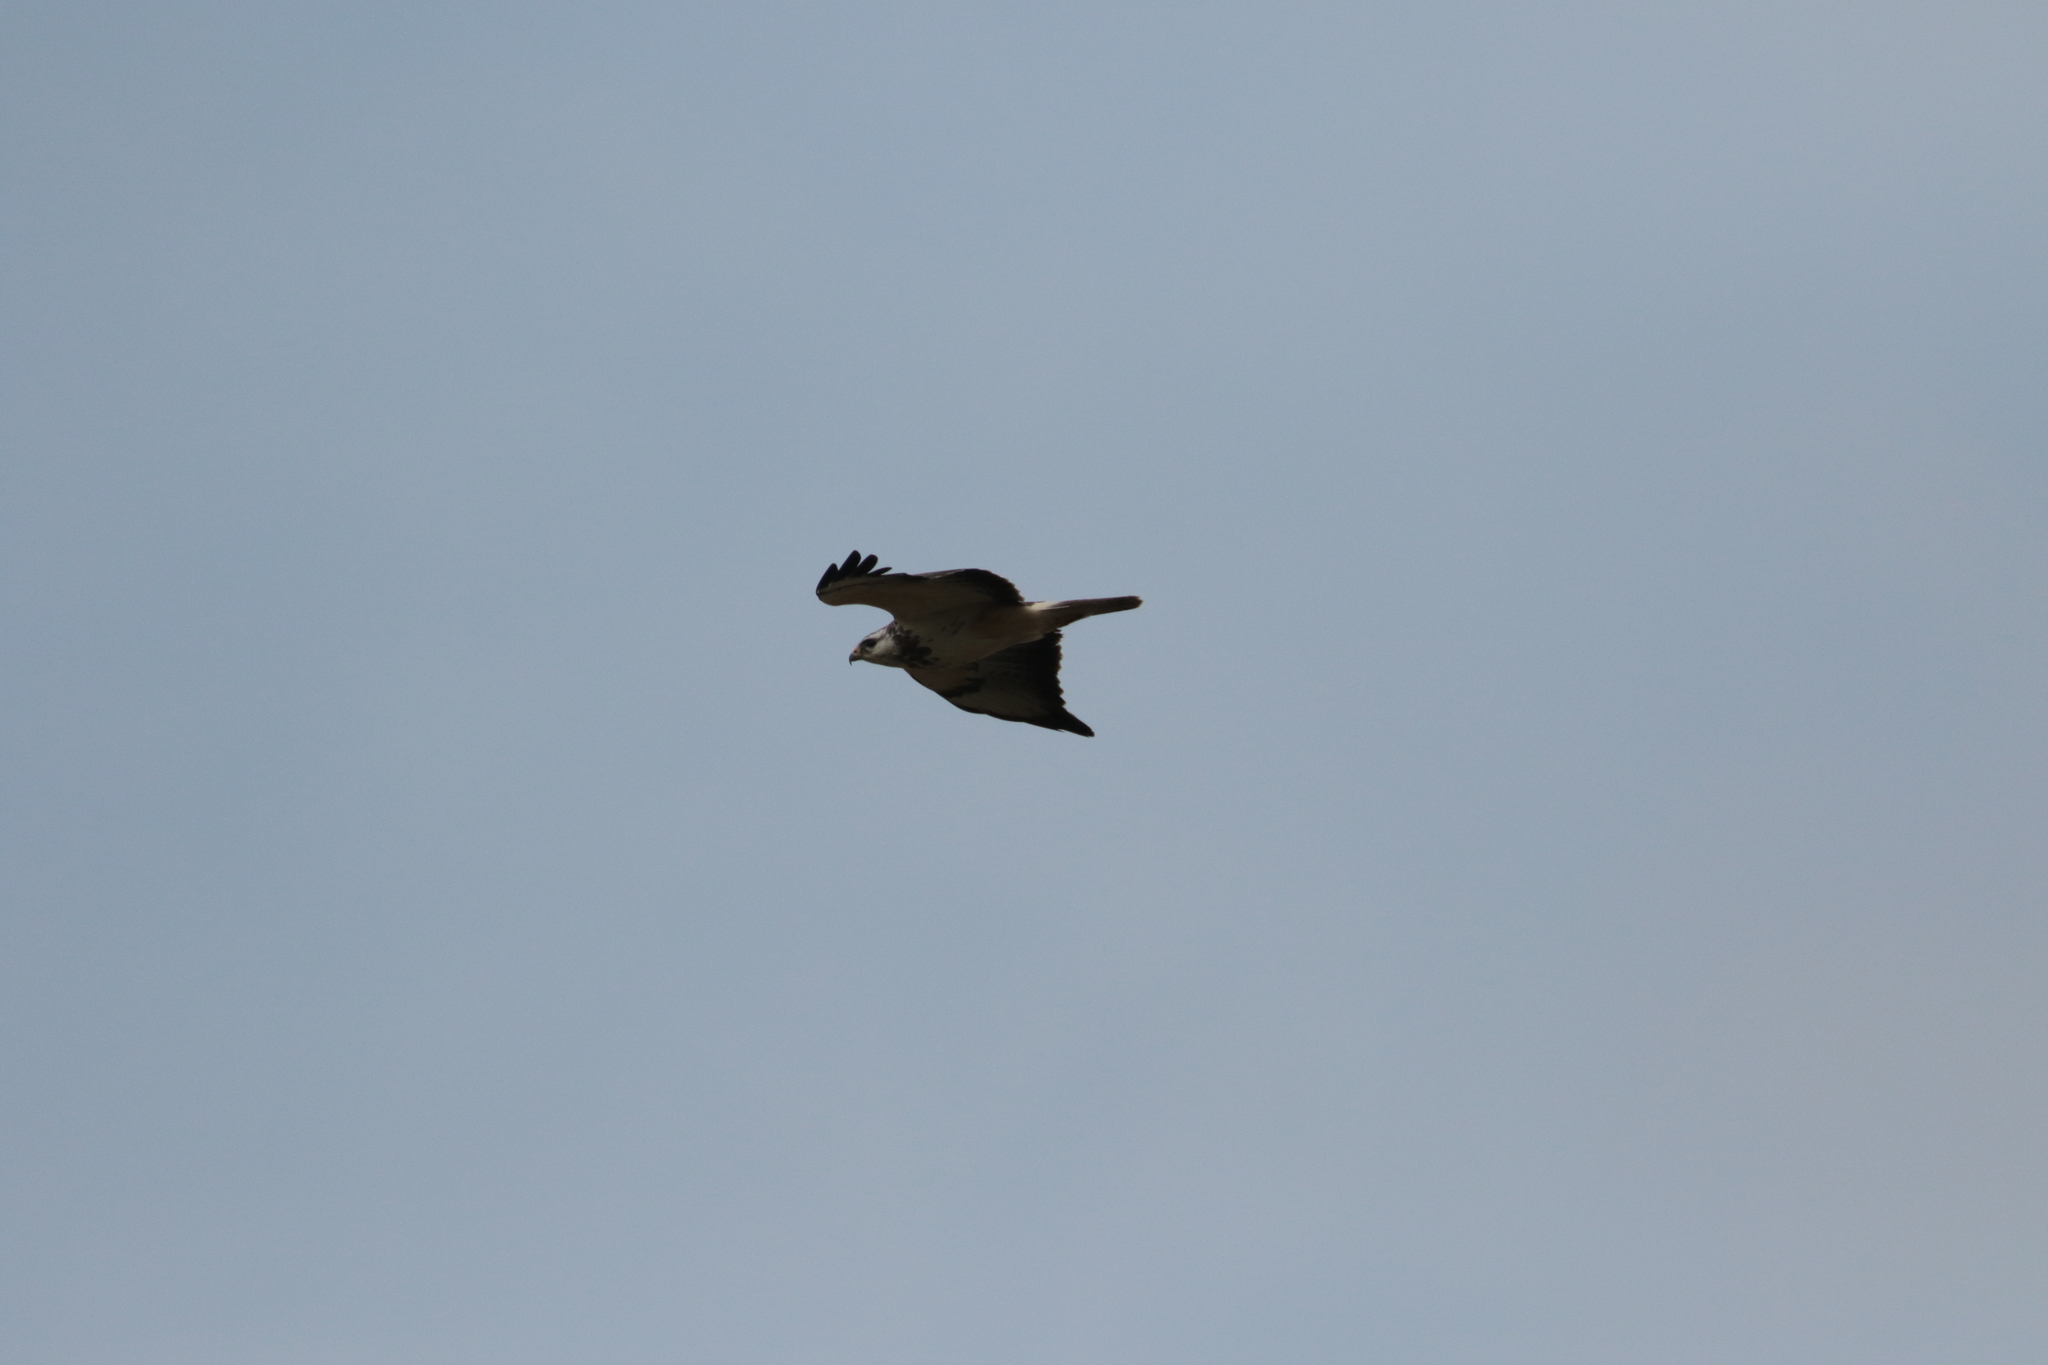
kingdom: Animalia
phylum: Chordata
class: Aves
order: Accipitriformes
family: Accipitridae
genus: Buteo
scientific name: Buteo buteo
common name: Common buzzard
